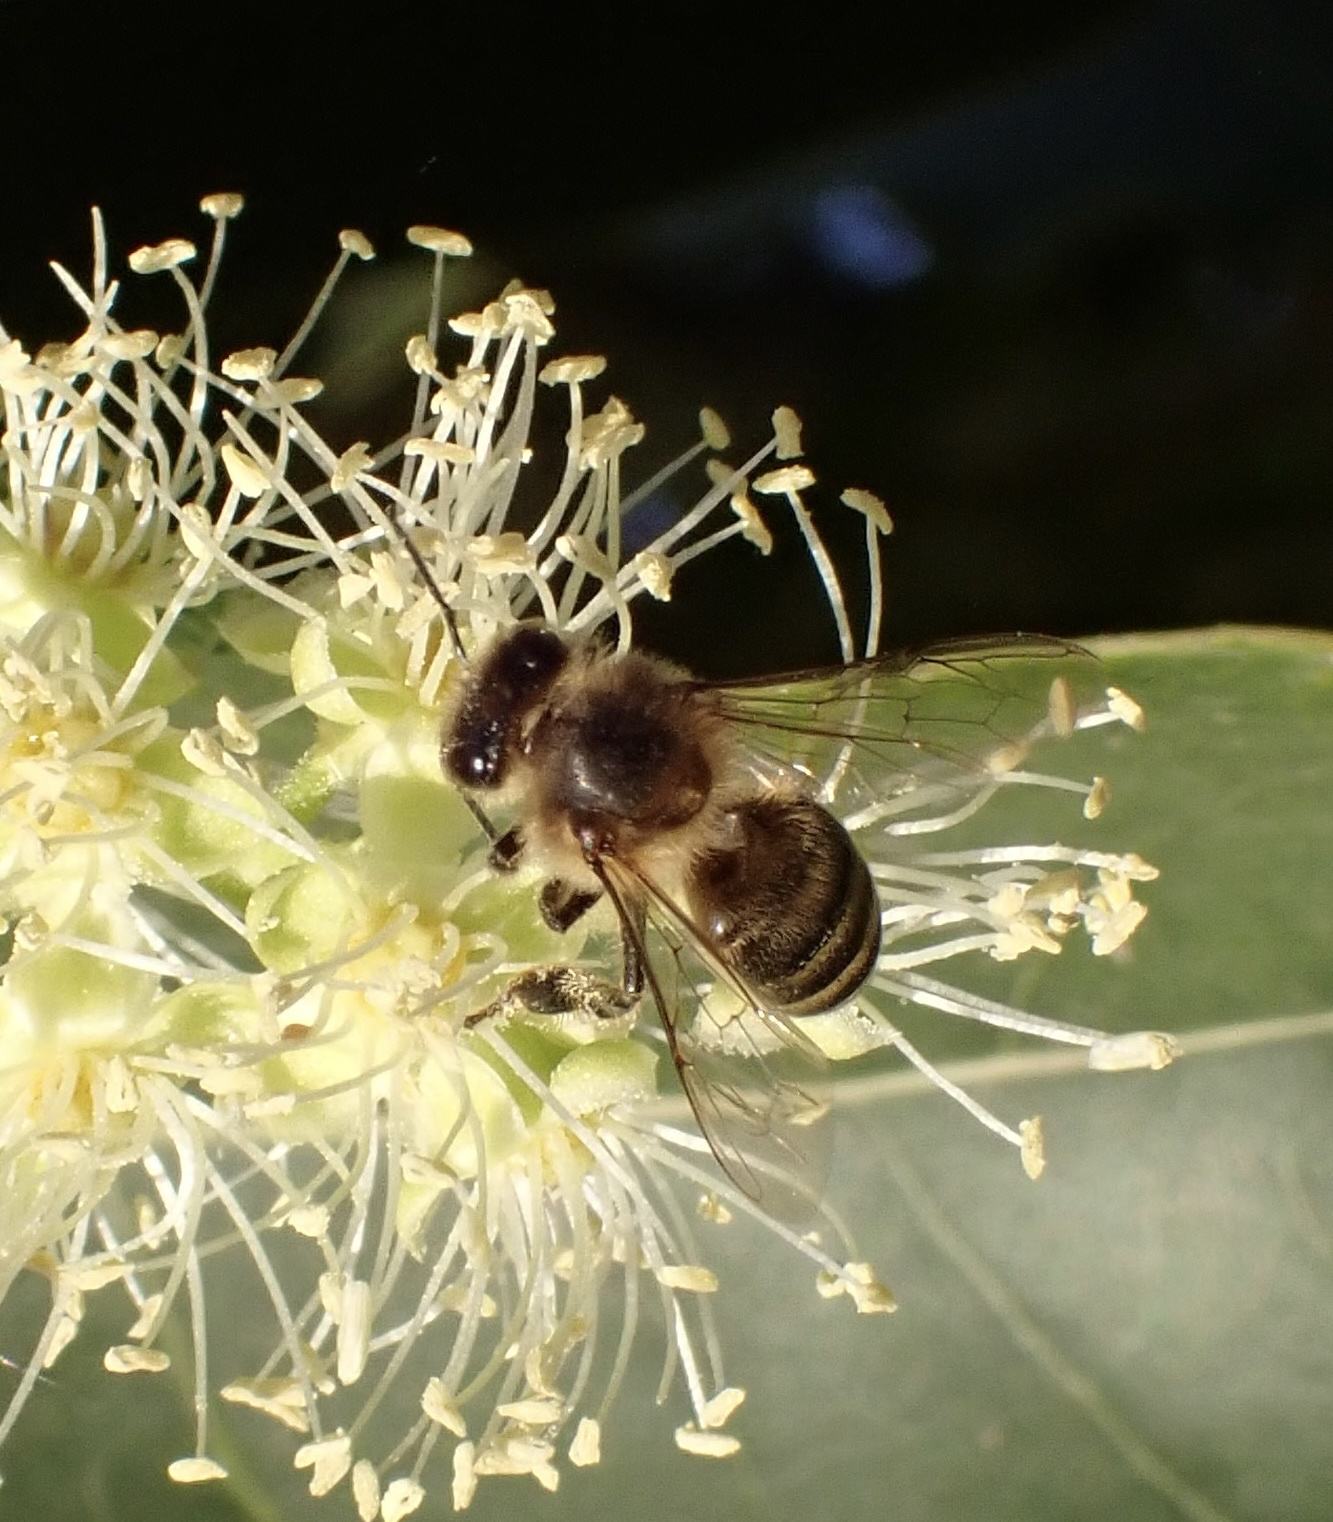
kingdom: Animalia
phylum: Arthropoda
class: Insecta
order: Hymenoptera
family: Apidae
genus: Apis
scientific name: Apis mellifera
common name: Honey bee
